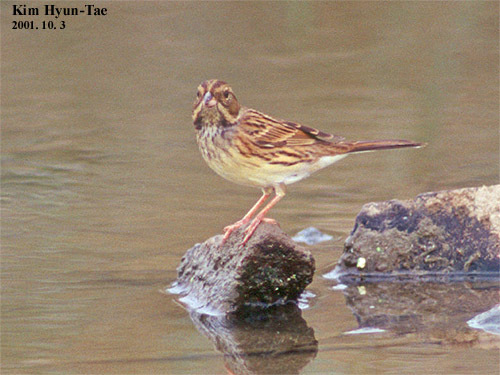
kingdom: Animalia
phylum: Chordata
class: Aves
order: Passeriformes
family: Emberizidae
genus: Emberiza
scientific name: Emberiza spodocephala
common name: Black-faced bunting
